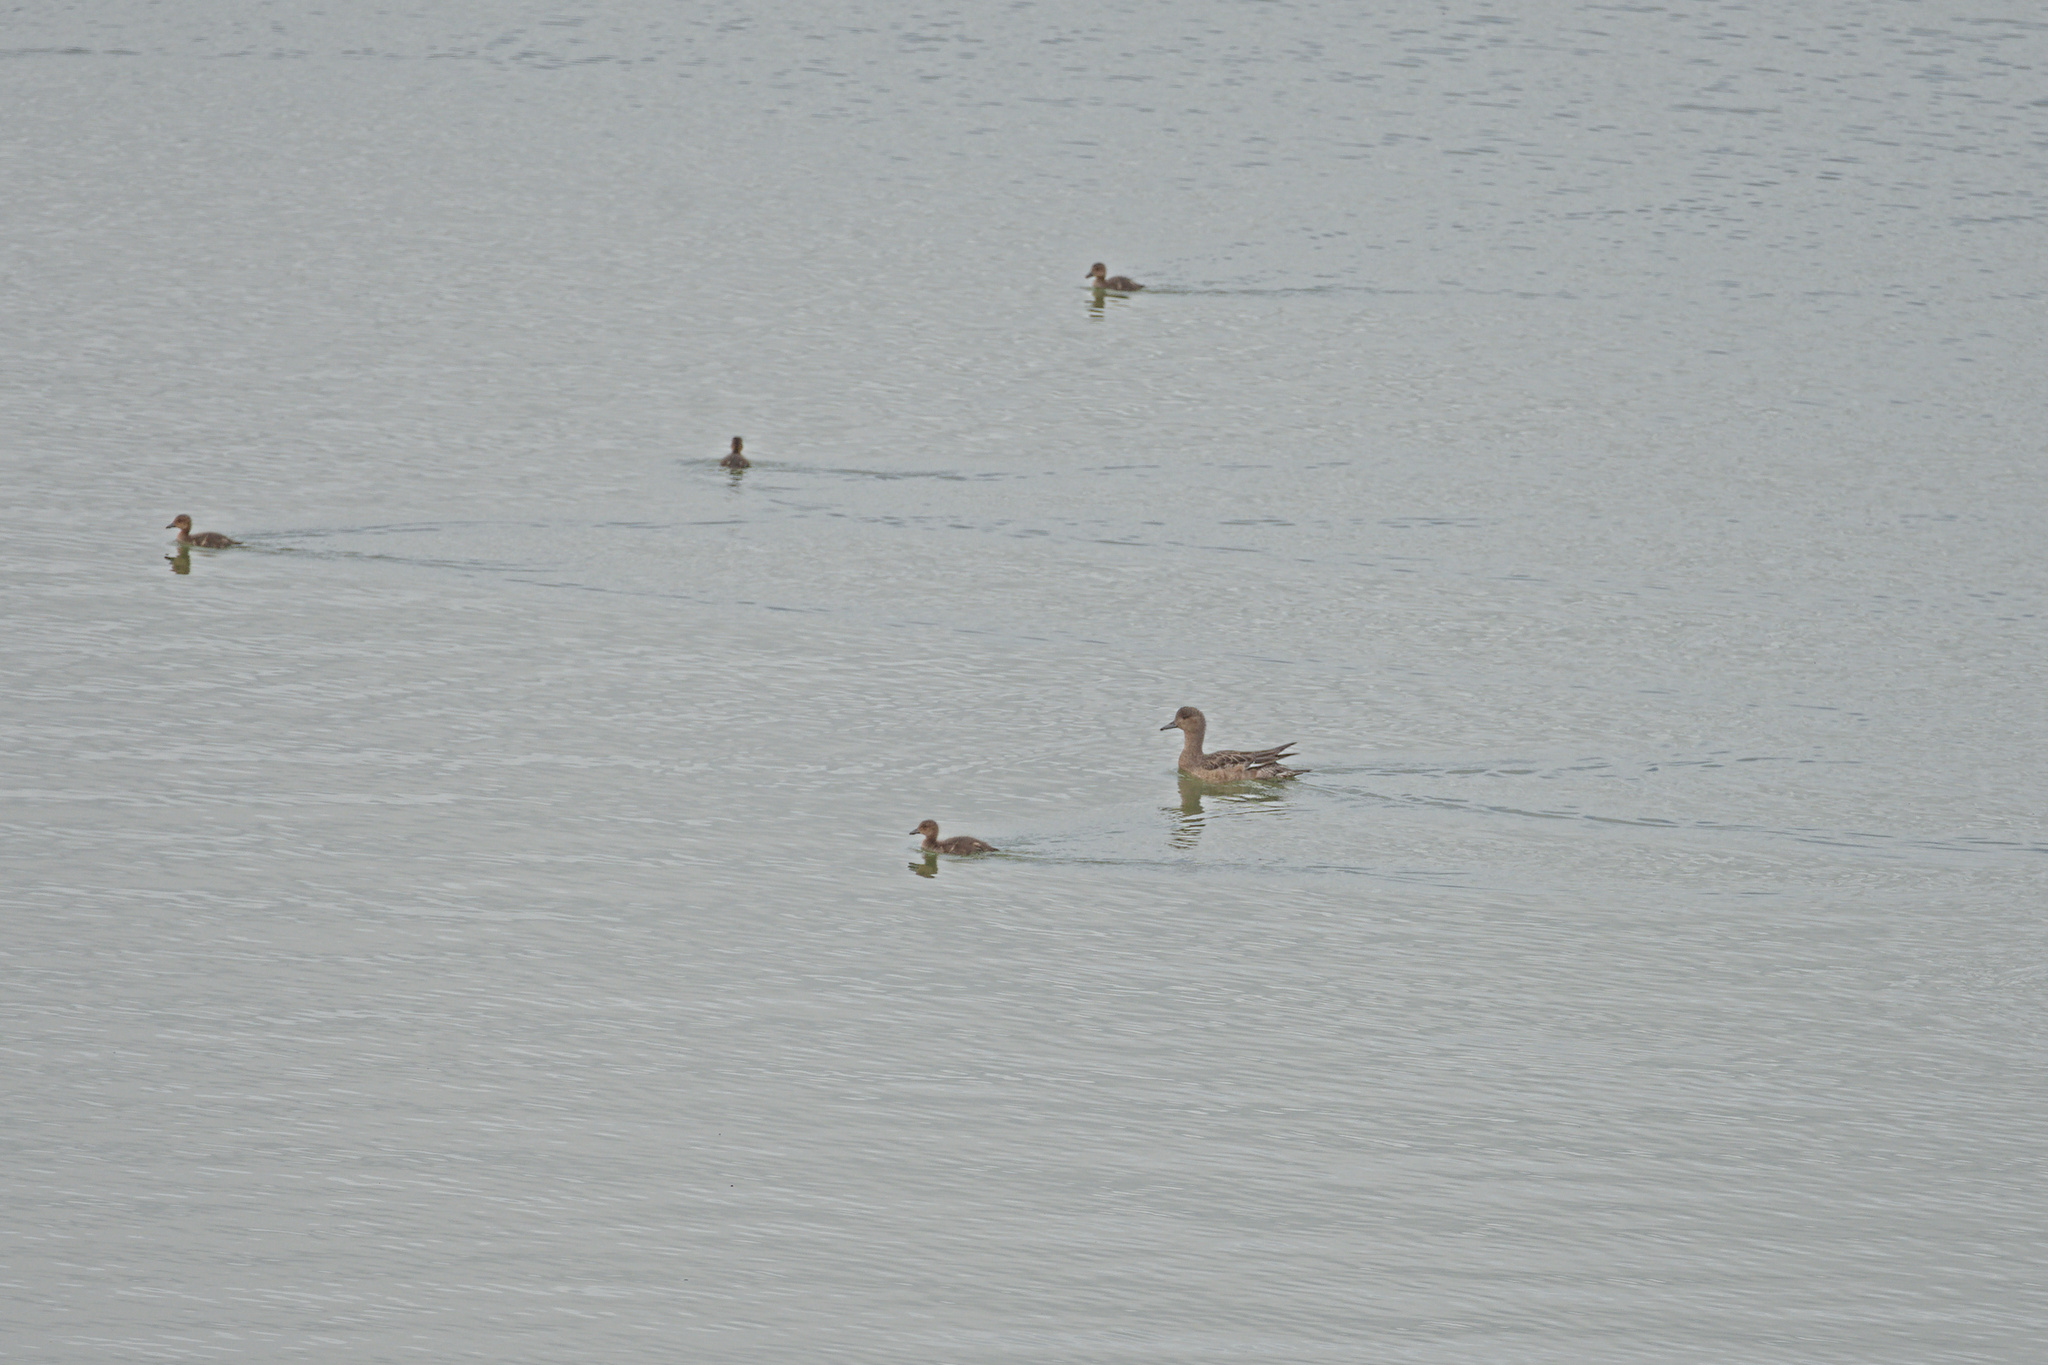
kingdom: Animalia
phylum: Chordata
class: Aves
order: Anseriformes
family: Anatidae
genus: Mareca
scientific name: Mareca penelope
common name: Eurasian wigeon
